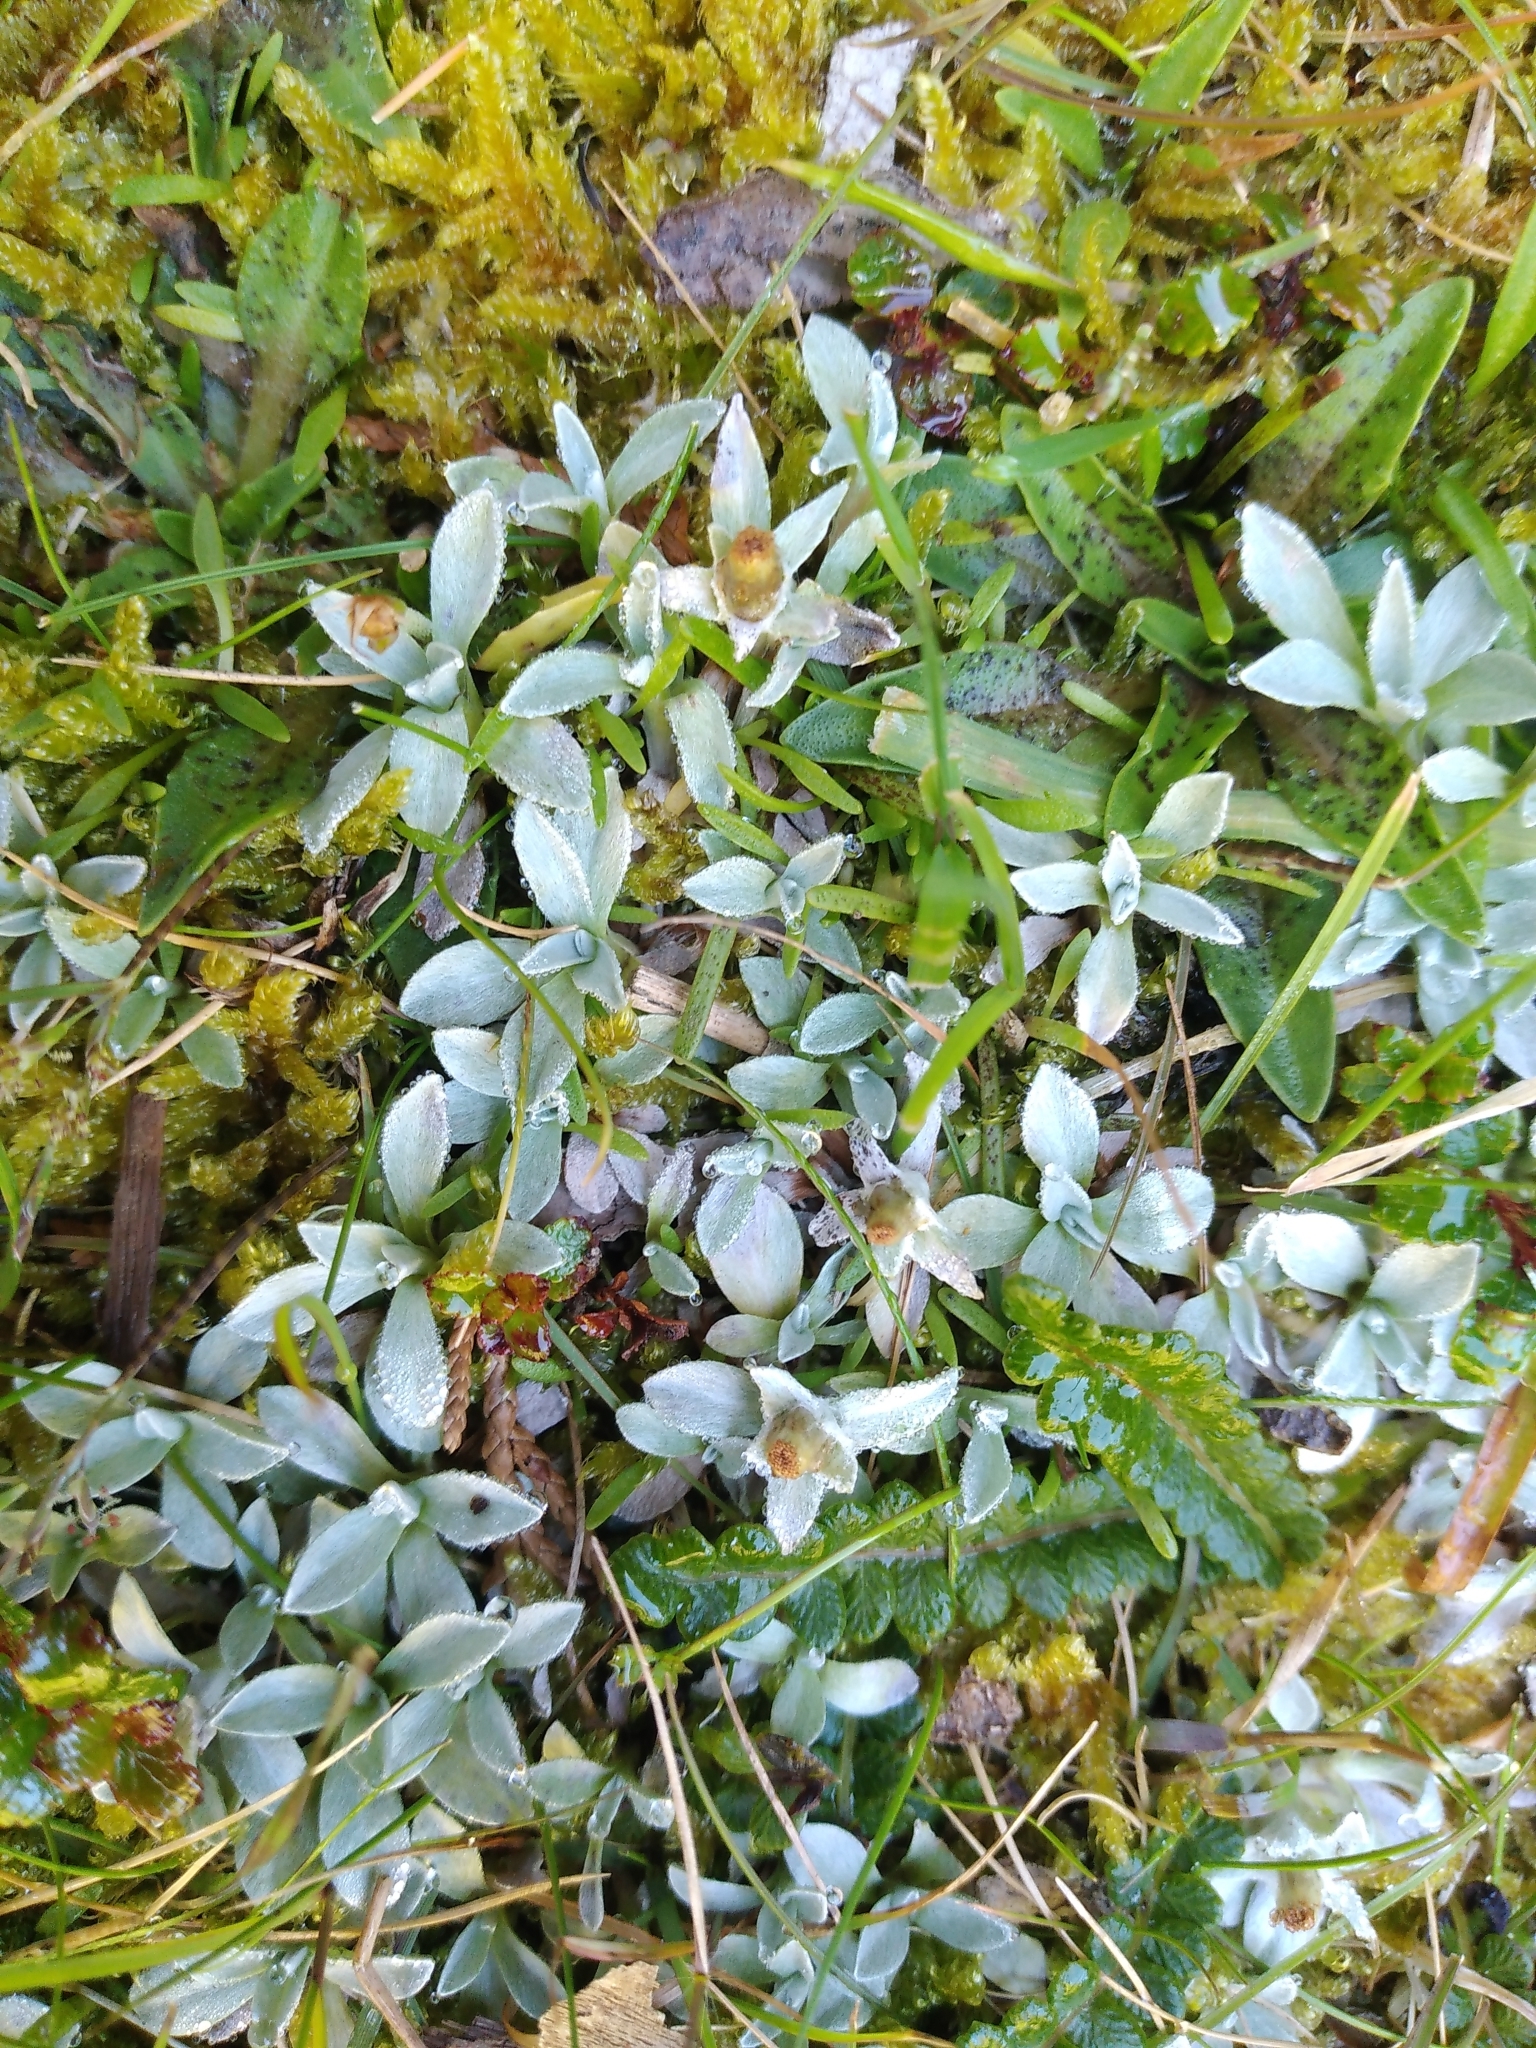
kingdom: Plantae
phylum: Tracheophyta
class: Magnoliopsida
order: Asterales
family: Asteraceae
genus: Argyrotegium
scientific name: Argyrotegium mackayi
